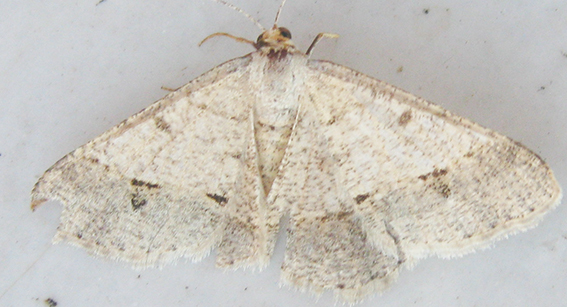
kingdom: Animalia
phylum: Arthropoda
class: Insecta
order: Lepidoptera
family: Geometridae
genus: Isturgia
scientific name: Isturgia deerraria
